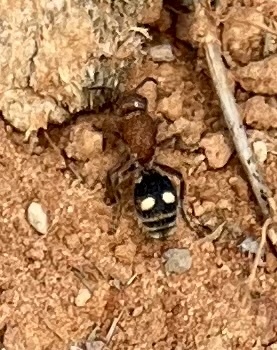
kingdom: Animalia
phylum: Arthropoda
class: Insecta
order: Hymenoptera
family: Mutillidae
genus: Dasymutilla
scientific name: Dasymutilla
